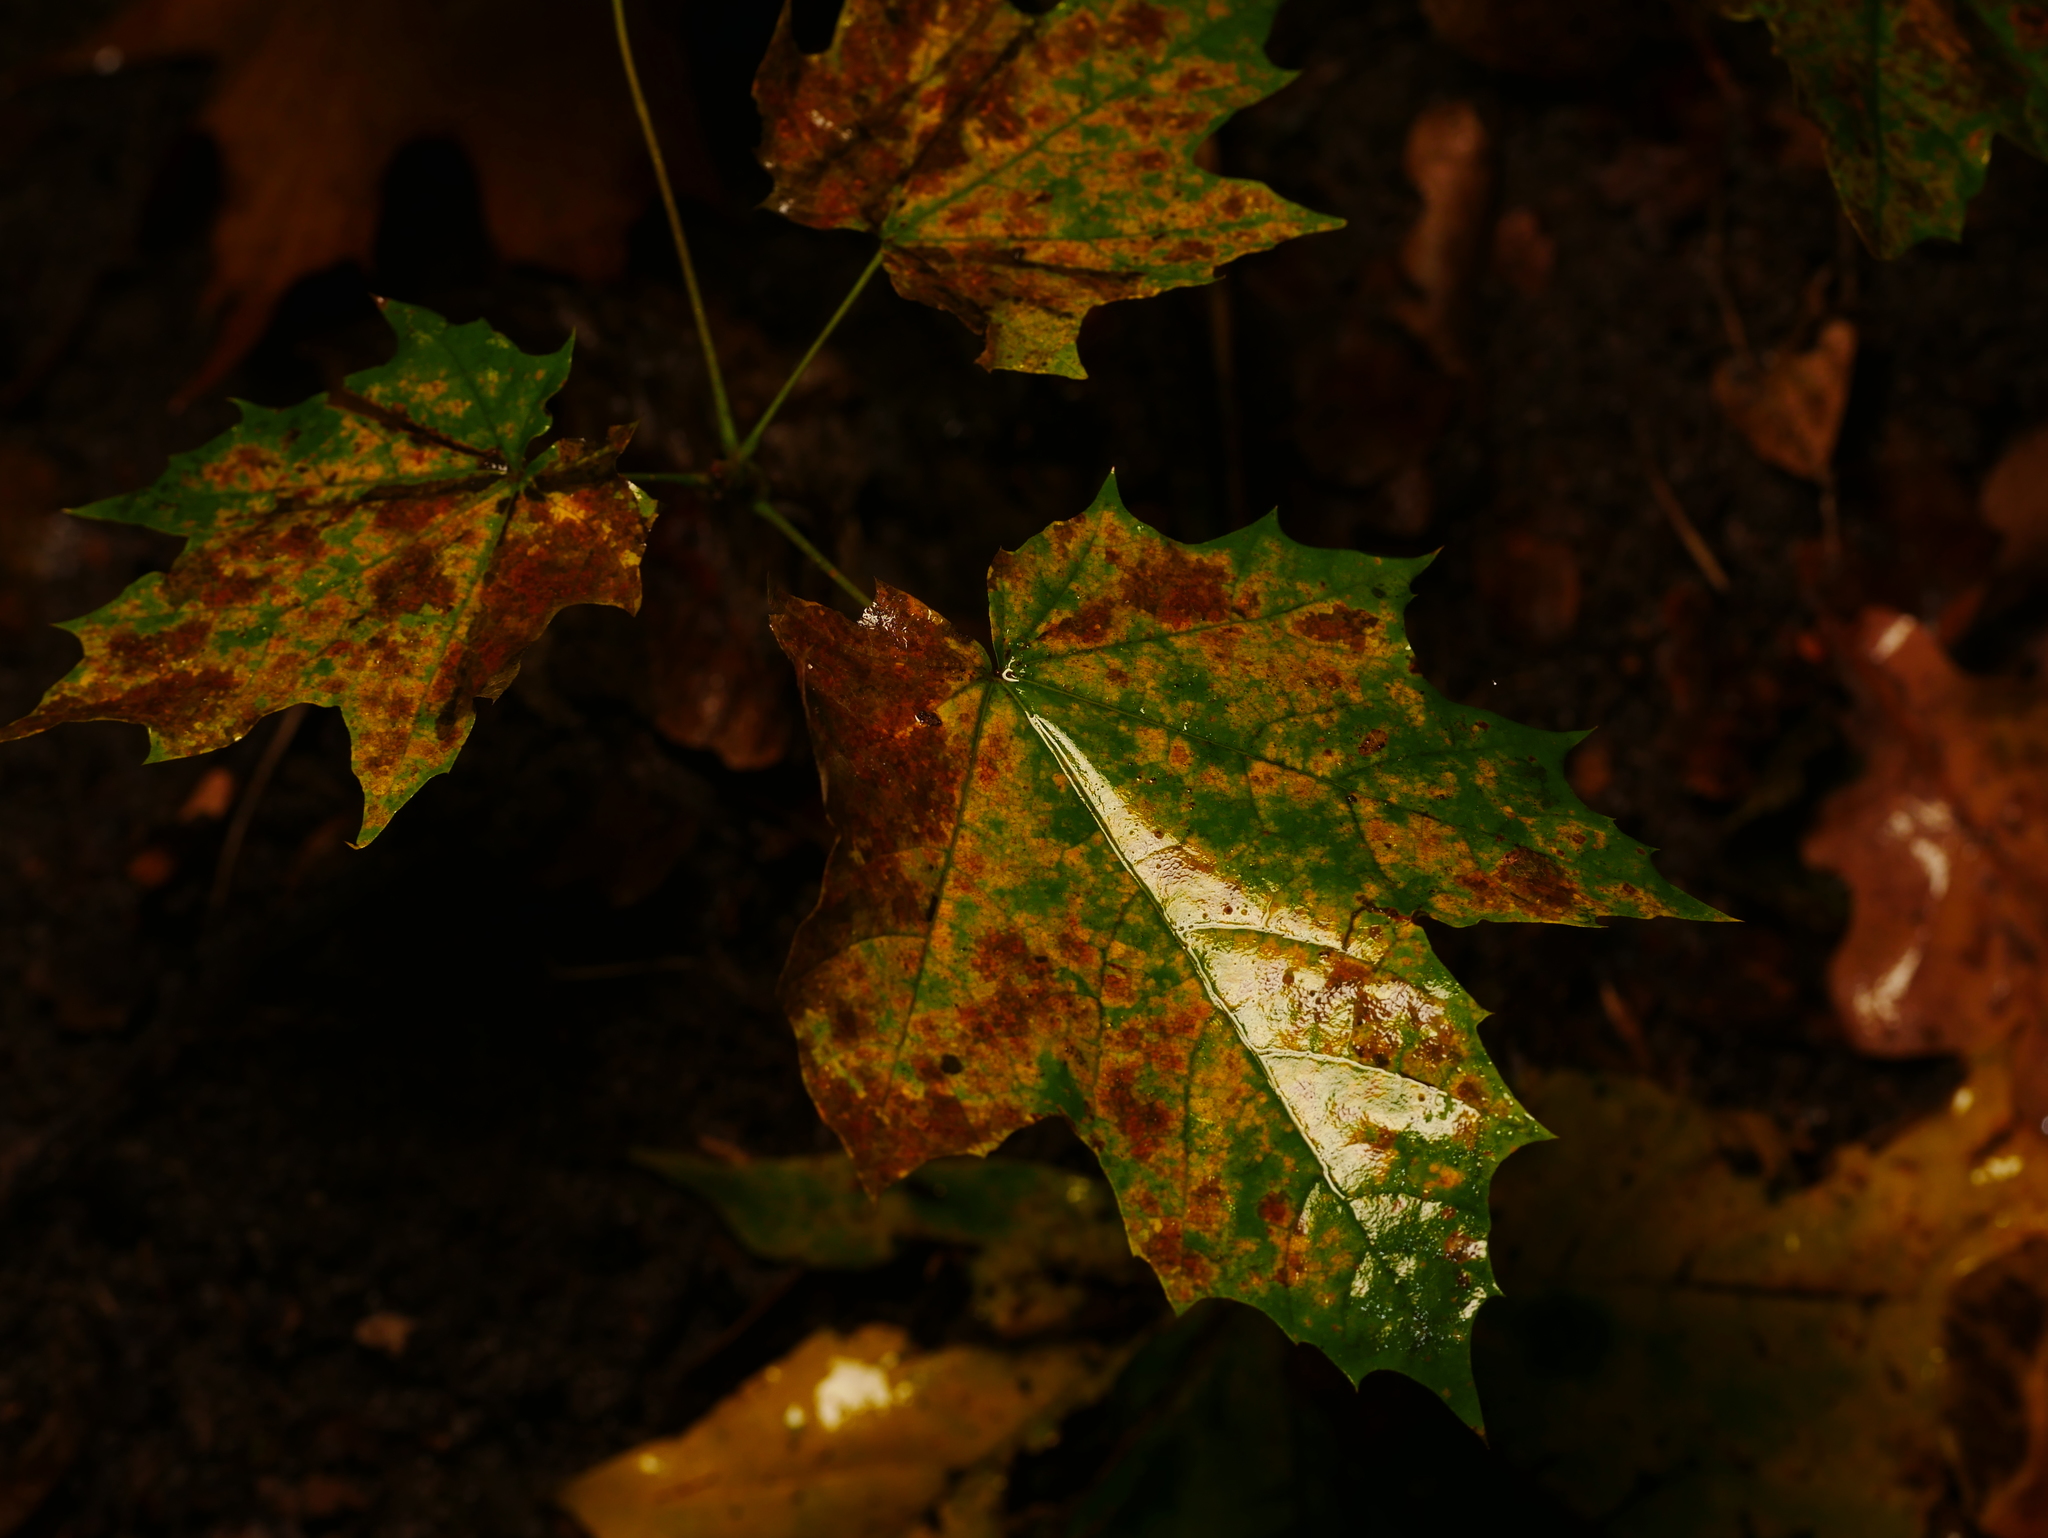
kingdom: Plantae
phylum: Tracheophyta
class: Magnoliopsida
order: Sapindales
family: Sapindaceae
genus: Acer
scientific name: Acer platanoides
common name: Norway maple
